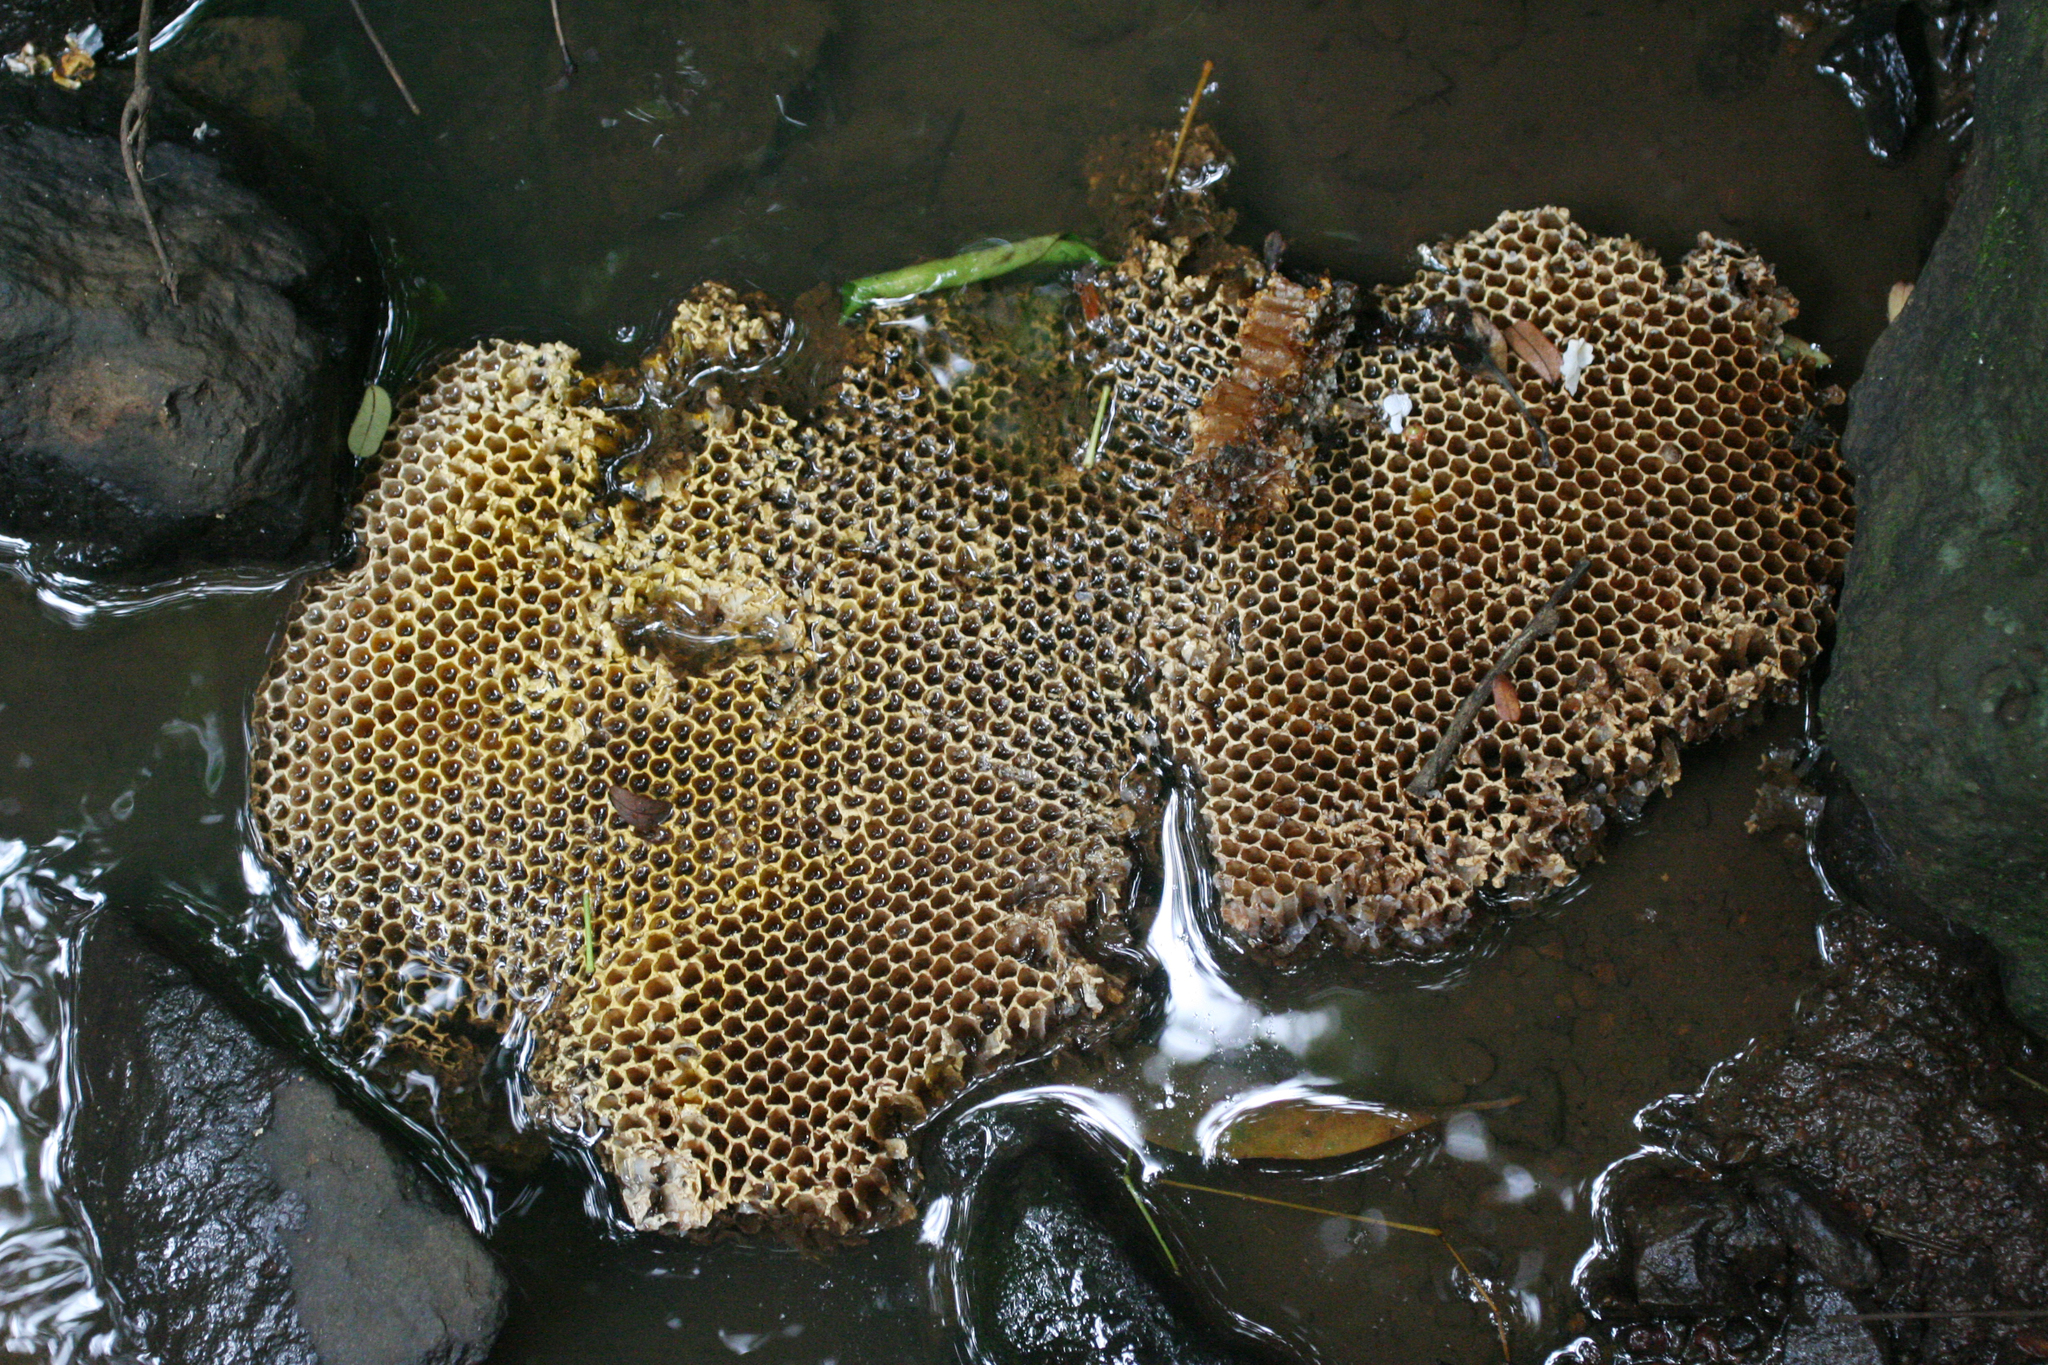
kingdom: Animalia
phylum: Arthropoda
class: Insecta
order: Hymenoptera
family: Apidae
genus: Apis
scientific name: Apis
